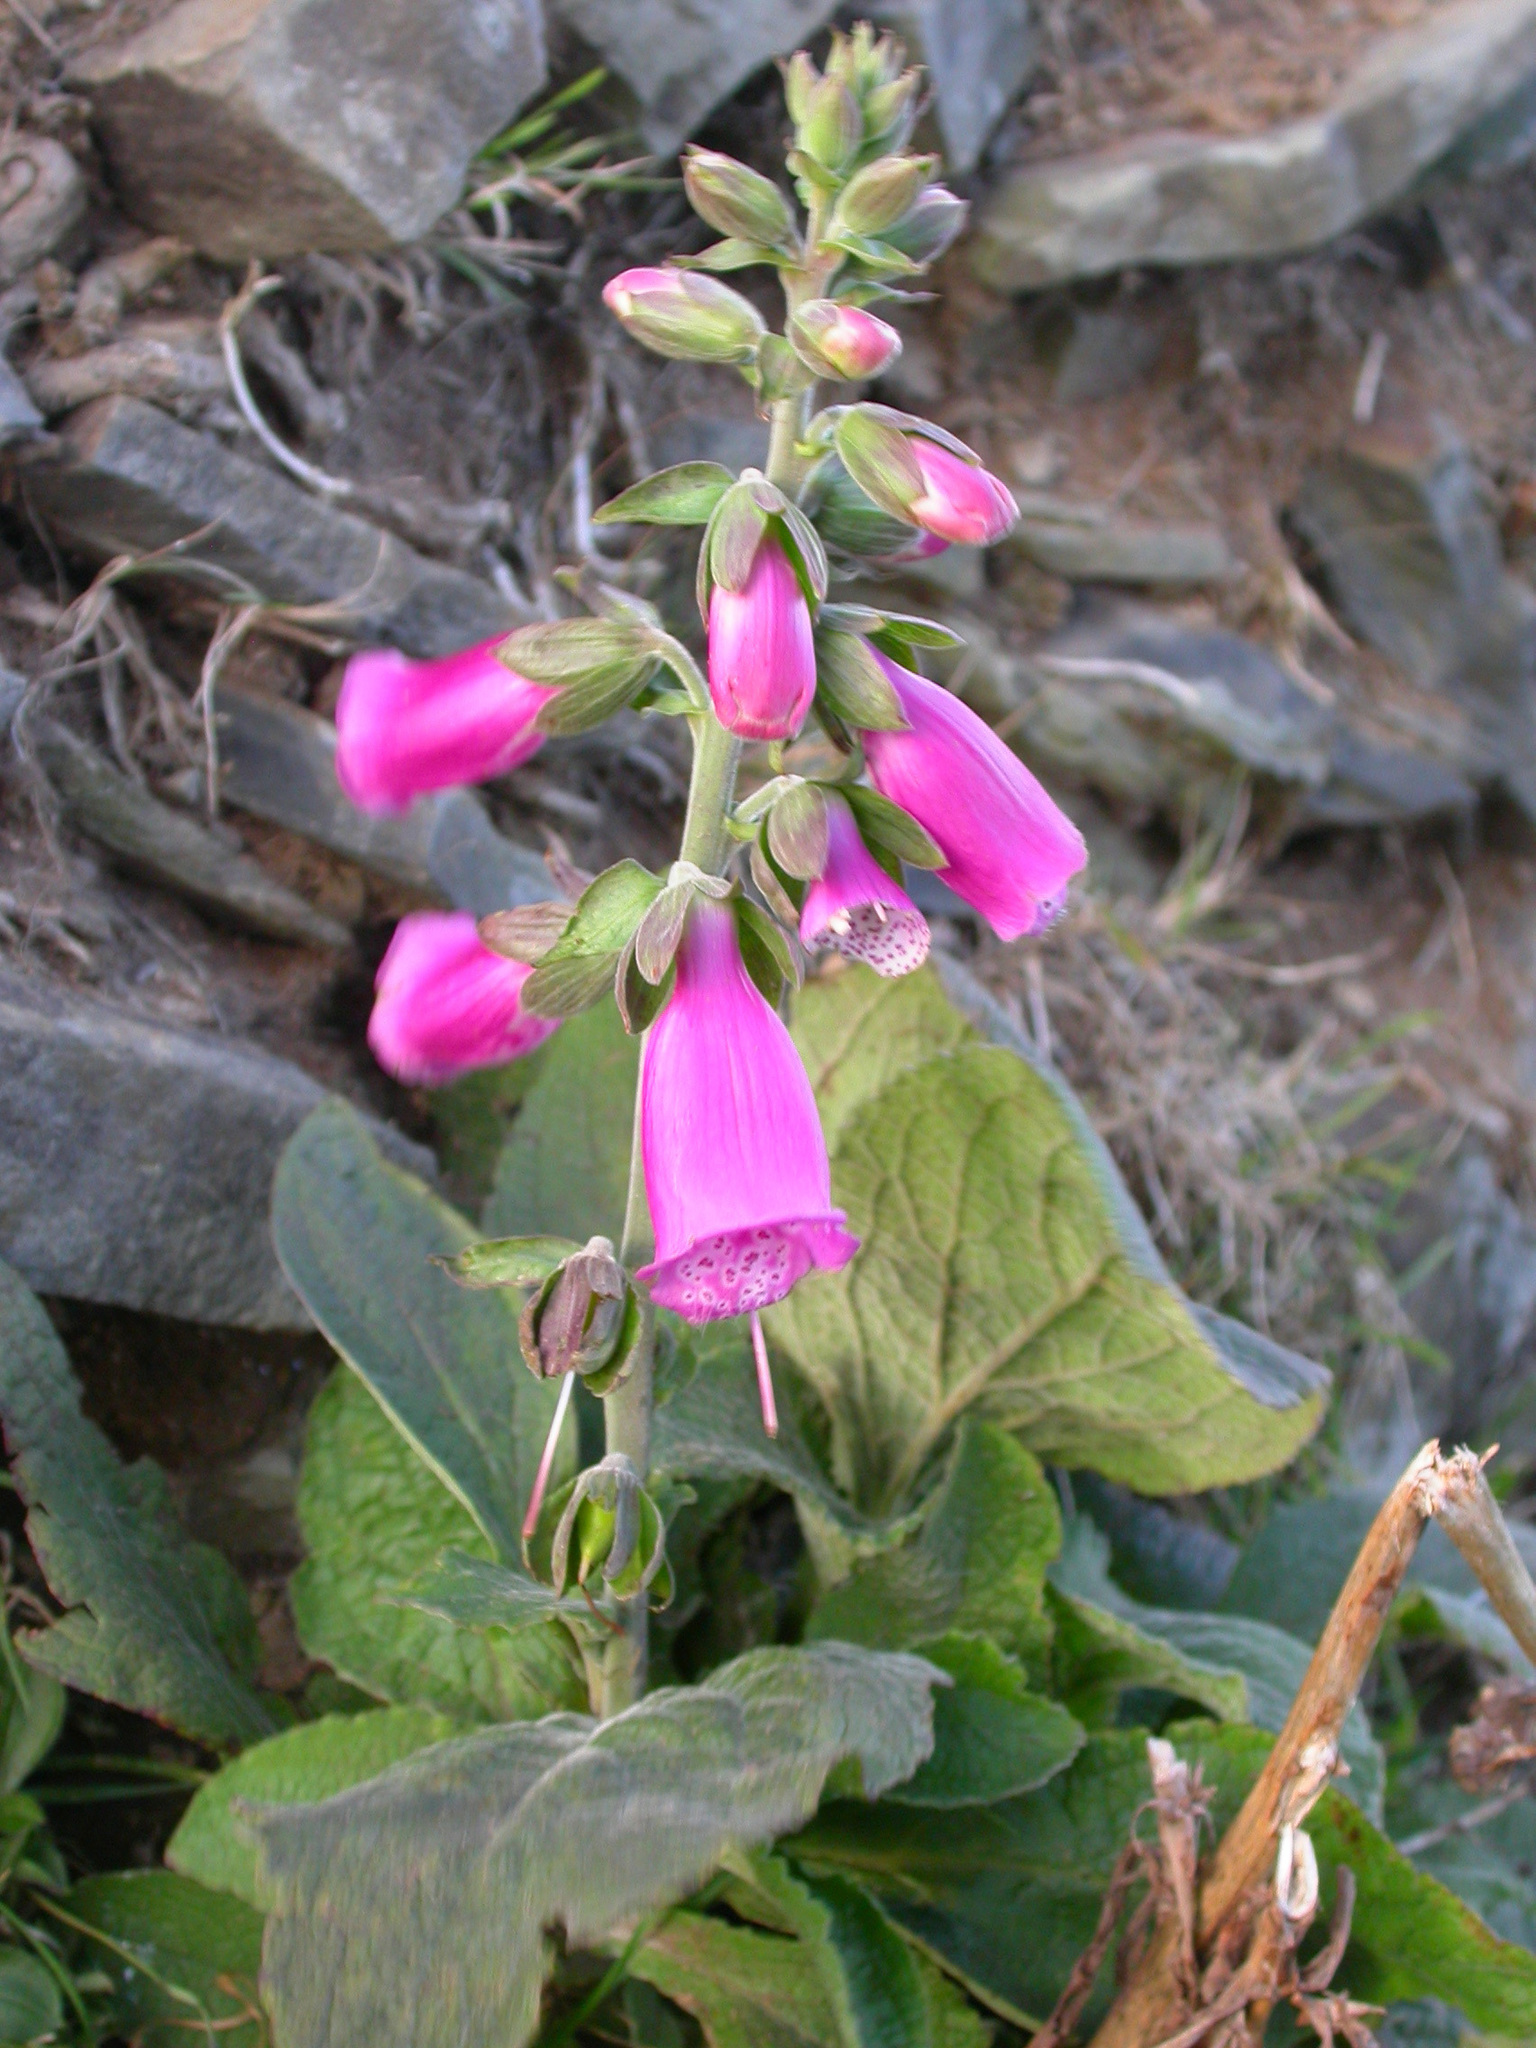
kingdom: Plantae
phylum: Tracheophyta
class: Magnoliopsida
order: Lamiales
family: Plantaginaceae
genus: Digitalis
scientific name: Digitalis purpurea
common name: Foxglove
